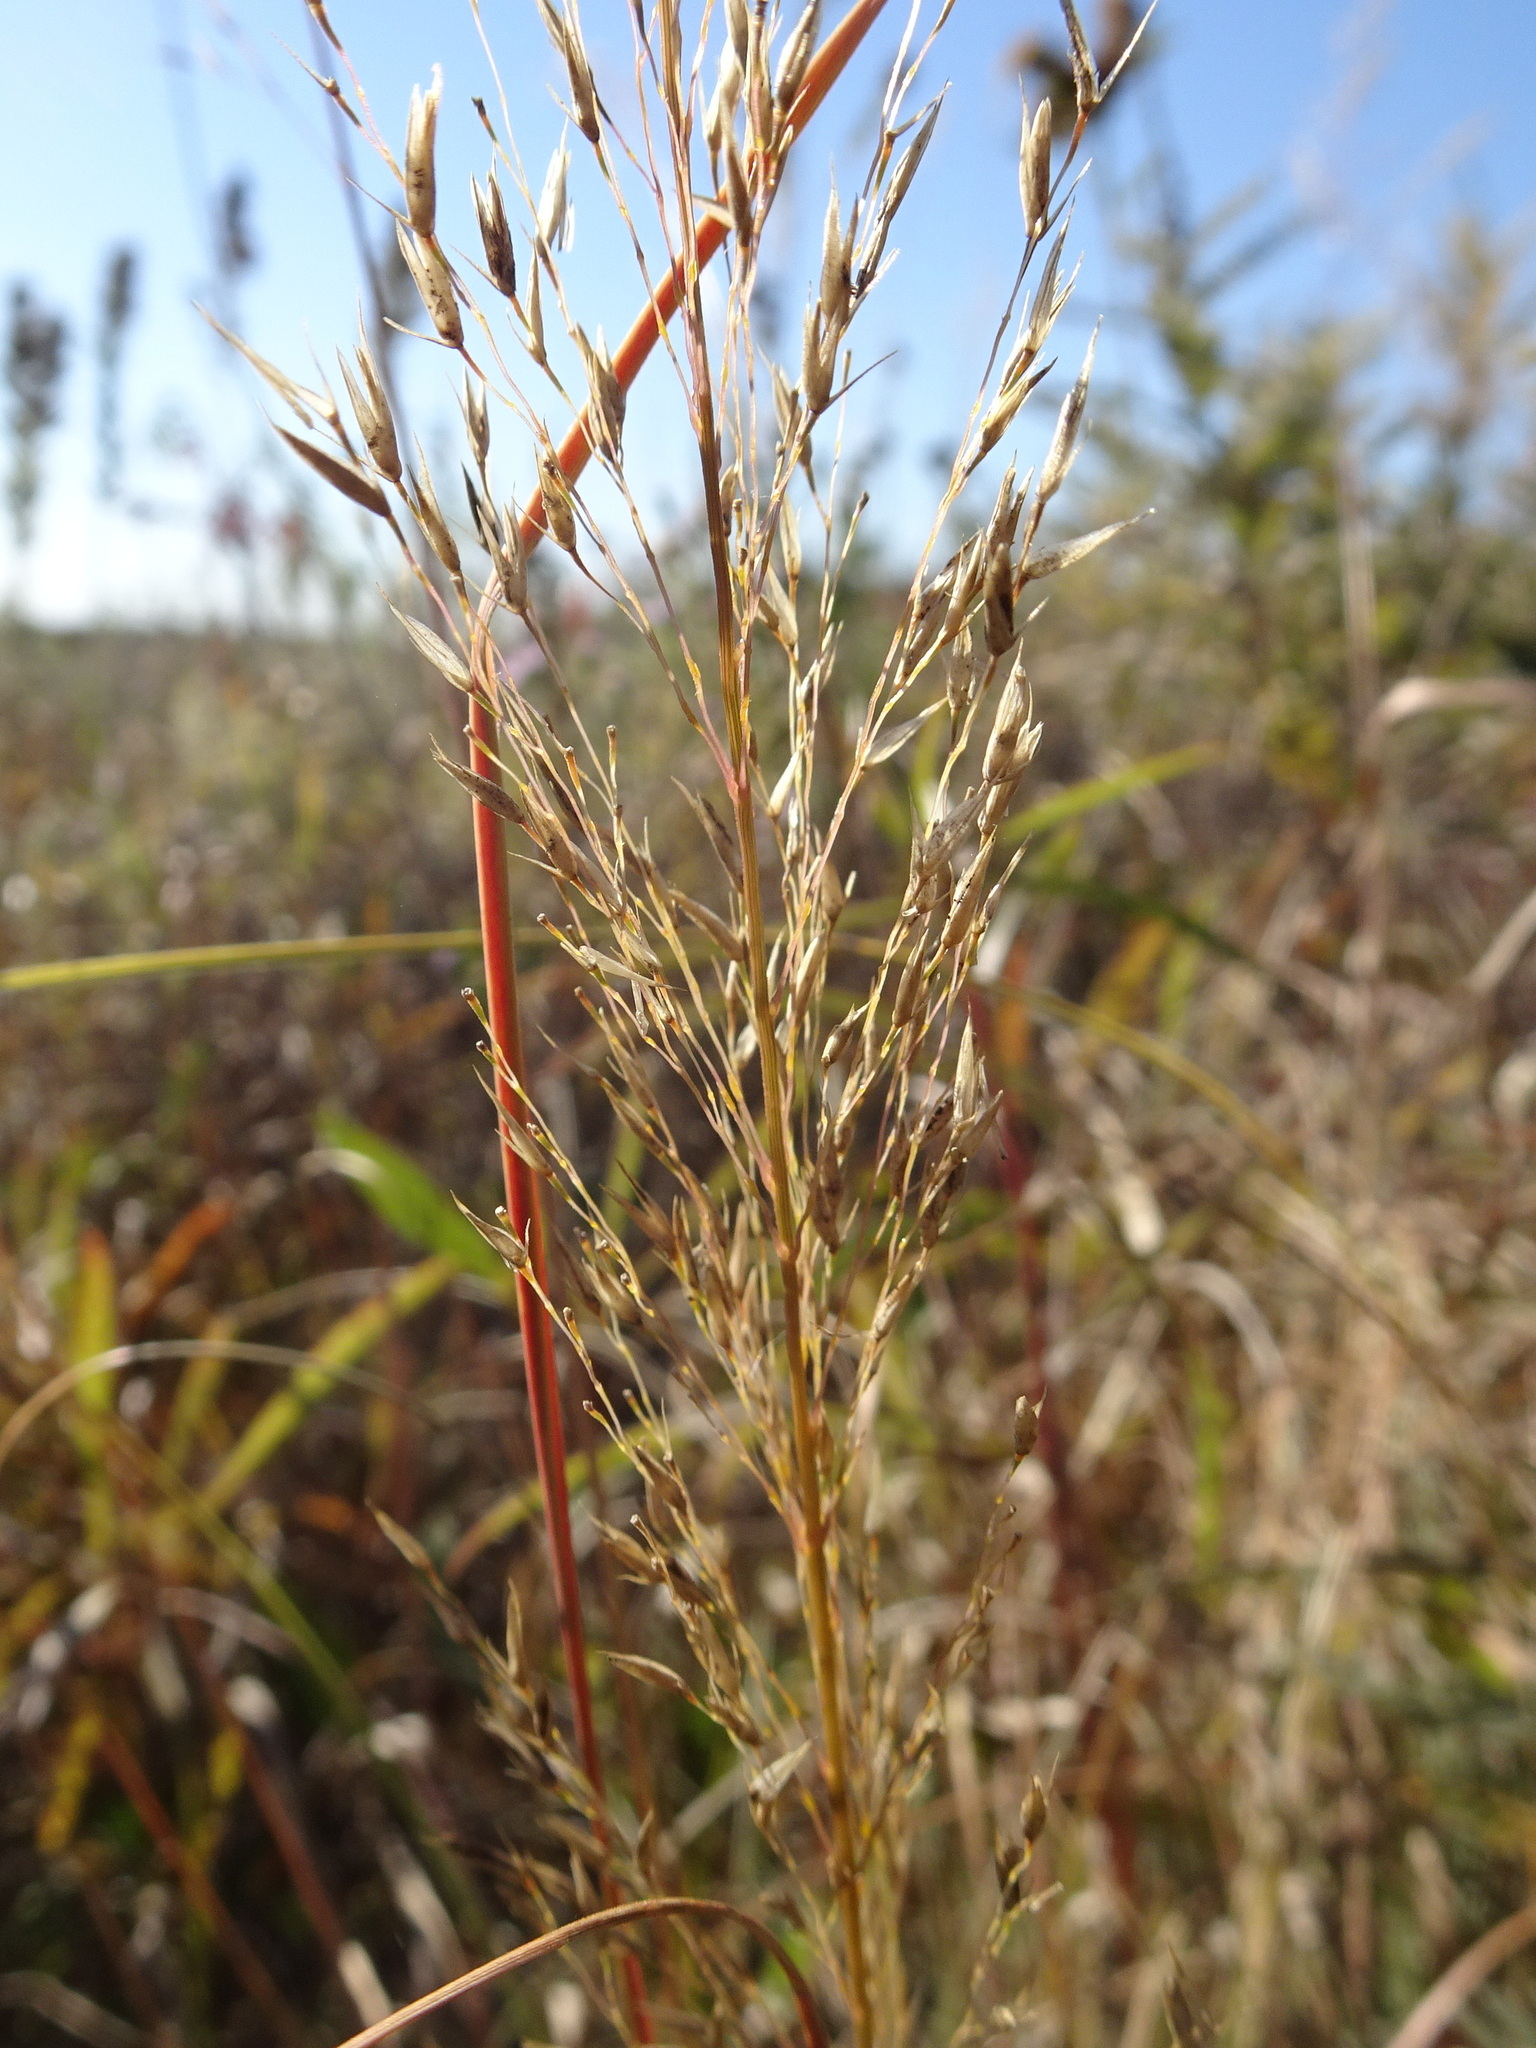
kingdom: Plantae
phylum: Tracheophyta
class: Liliopsida
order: Poales
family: Poaceae
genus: Sporobolus
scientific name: Sporobolus heterolepis
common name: Prairie dropseed
